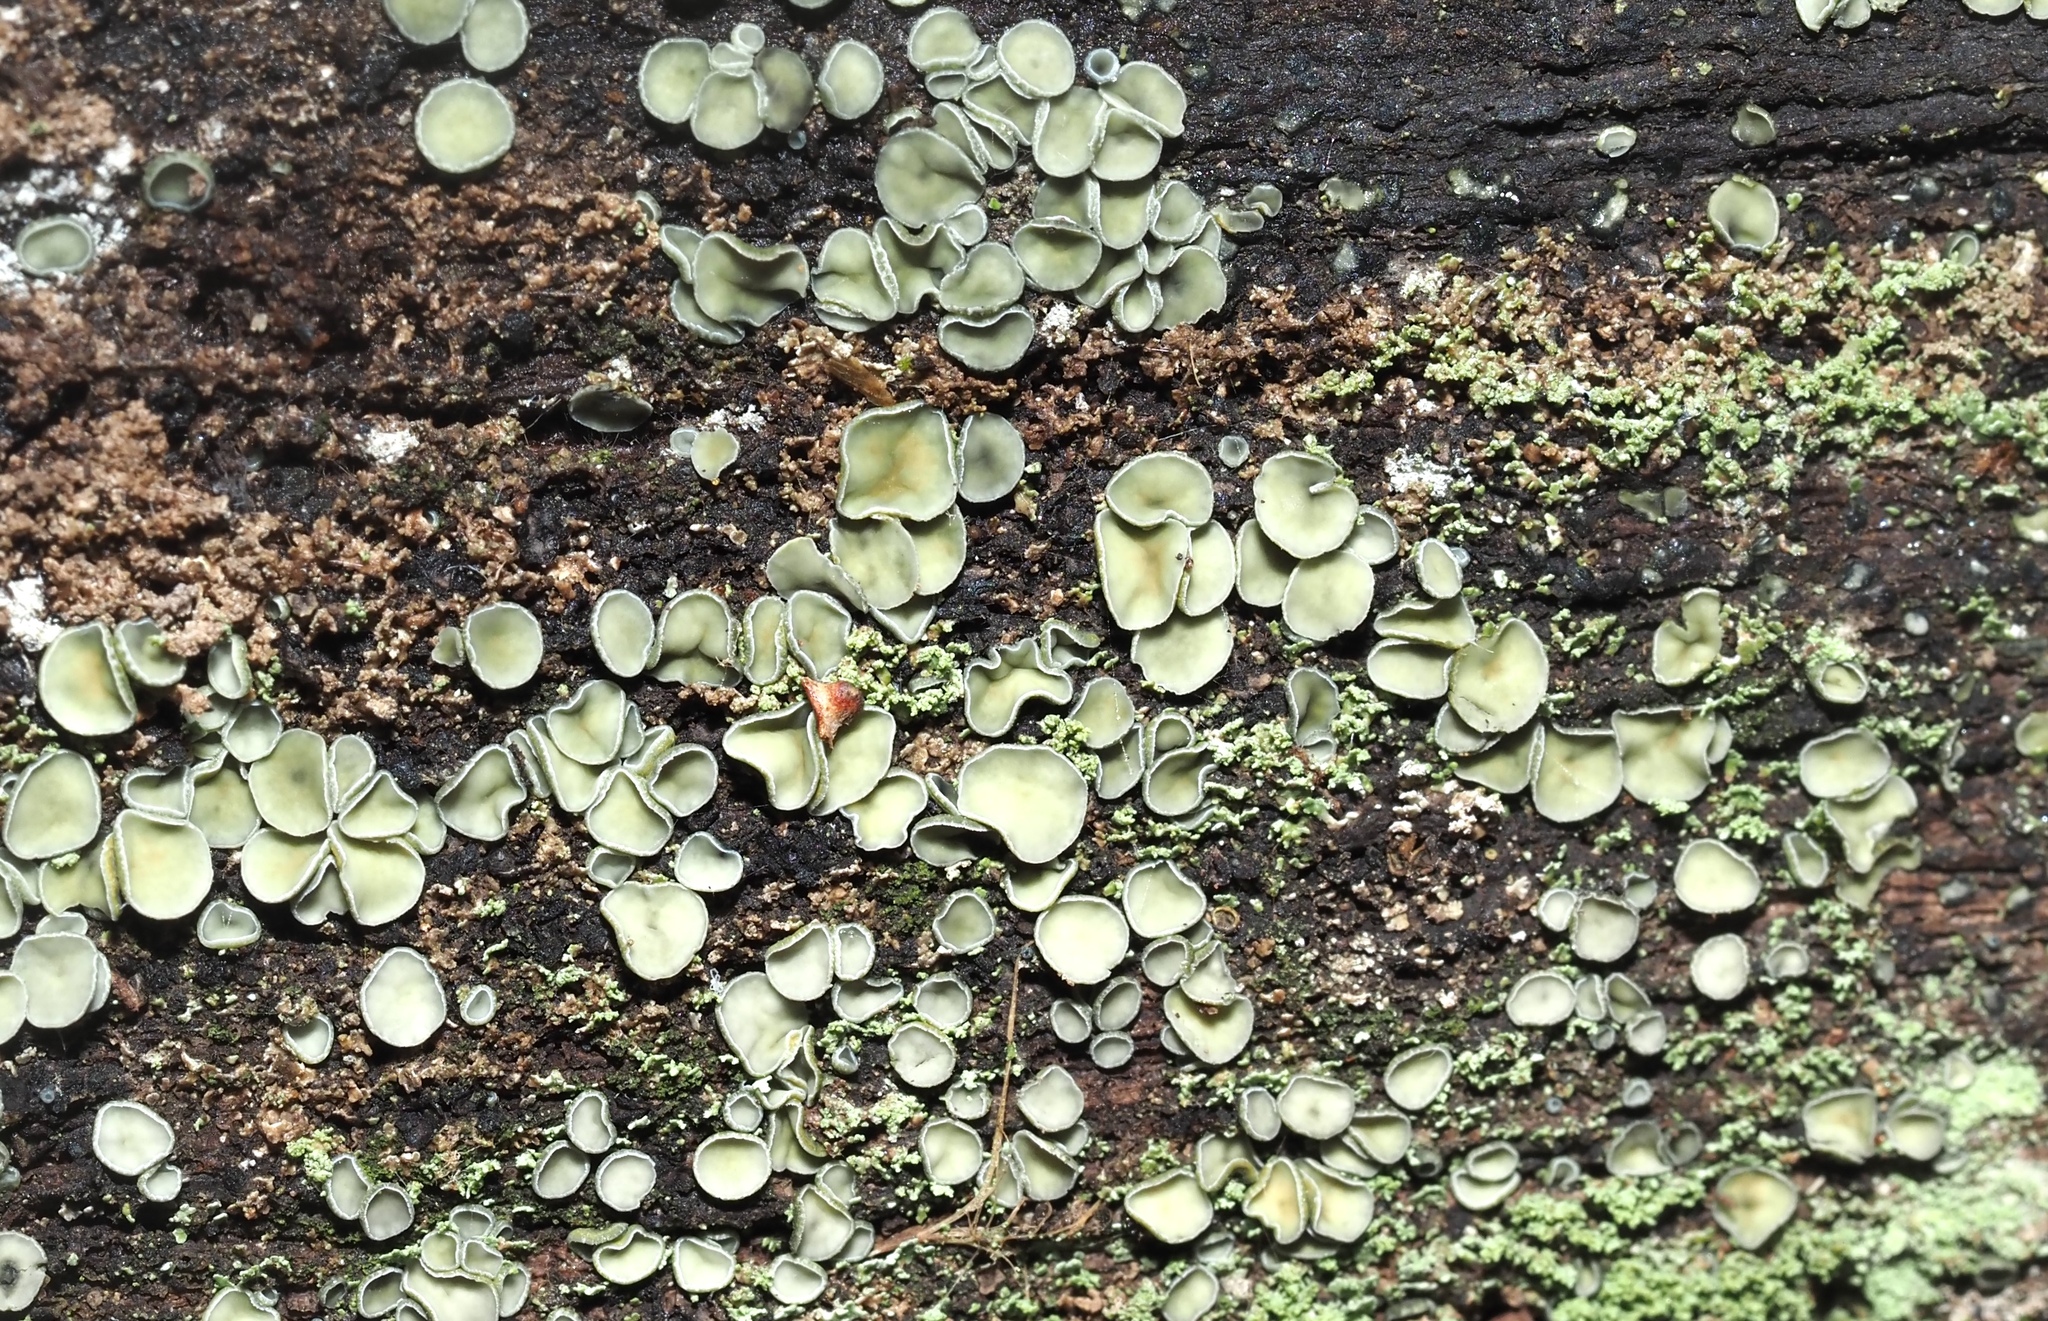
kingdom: Fungi
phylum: Ascomycota
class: Leotiomycetes
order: Helotiales
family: Chlorospleniaceae
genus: Chlorosplenium
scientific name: Chlorosplenium chlora
